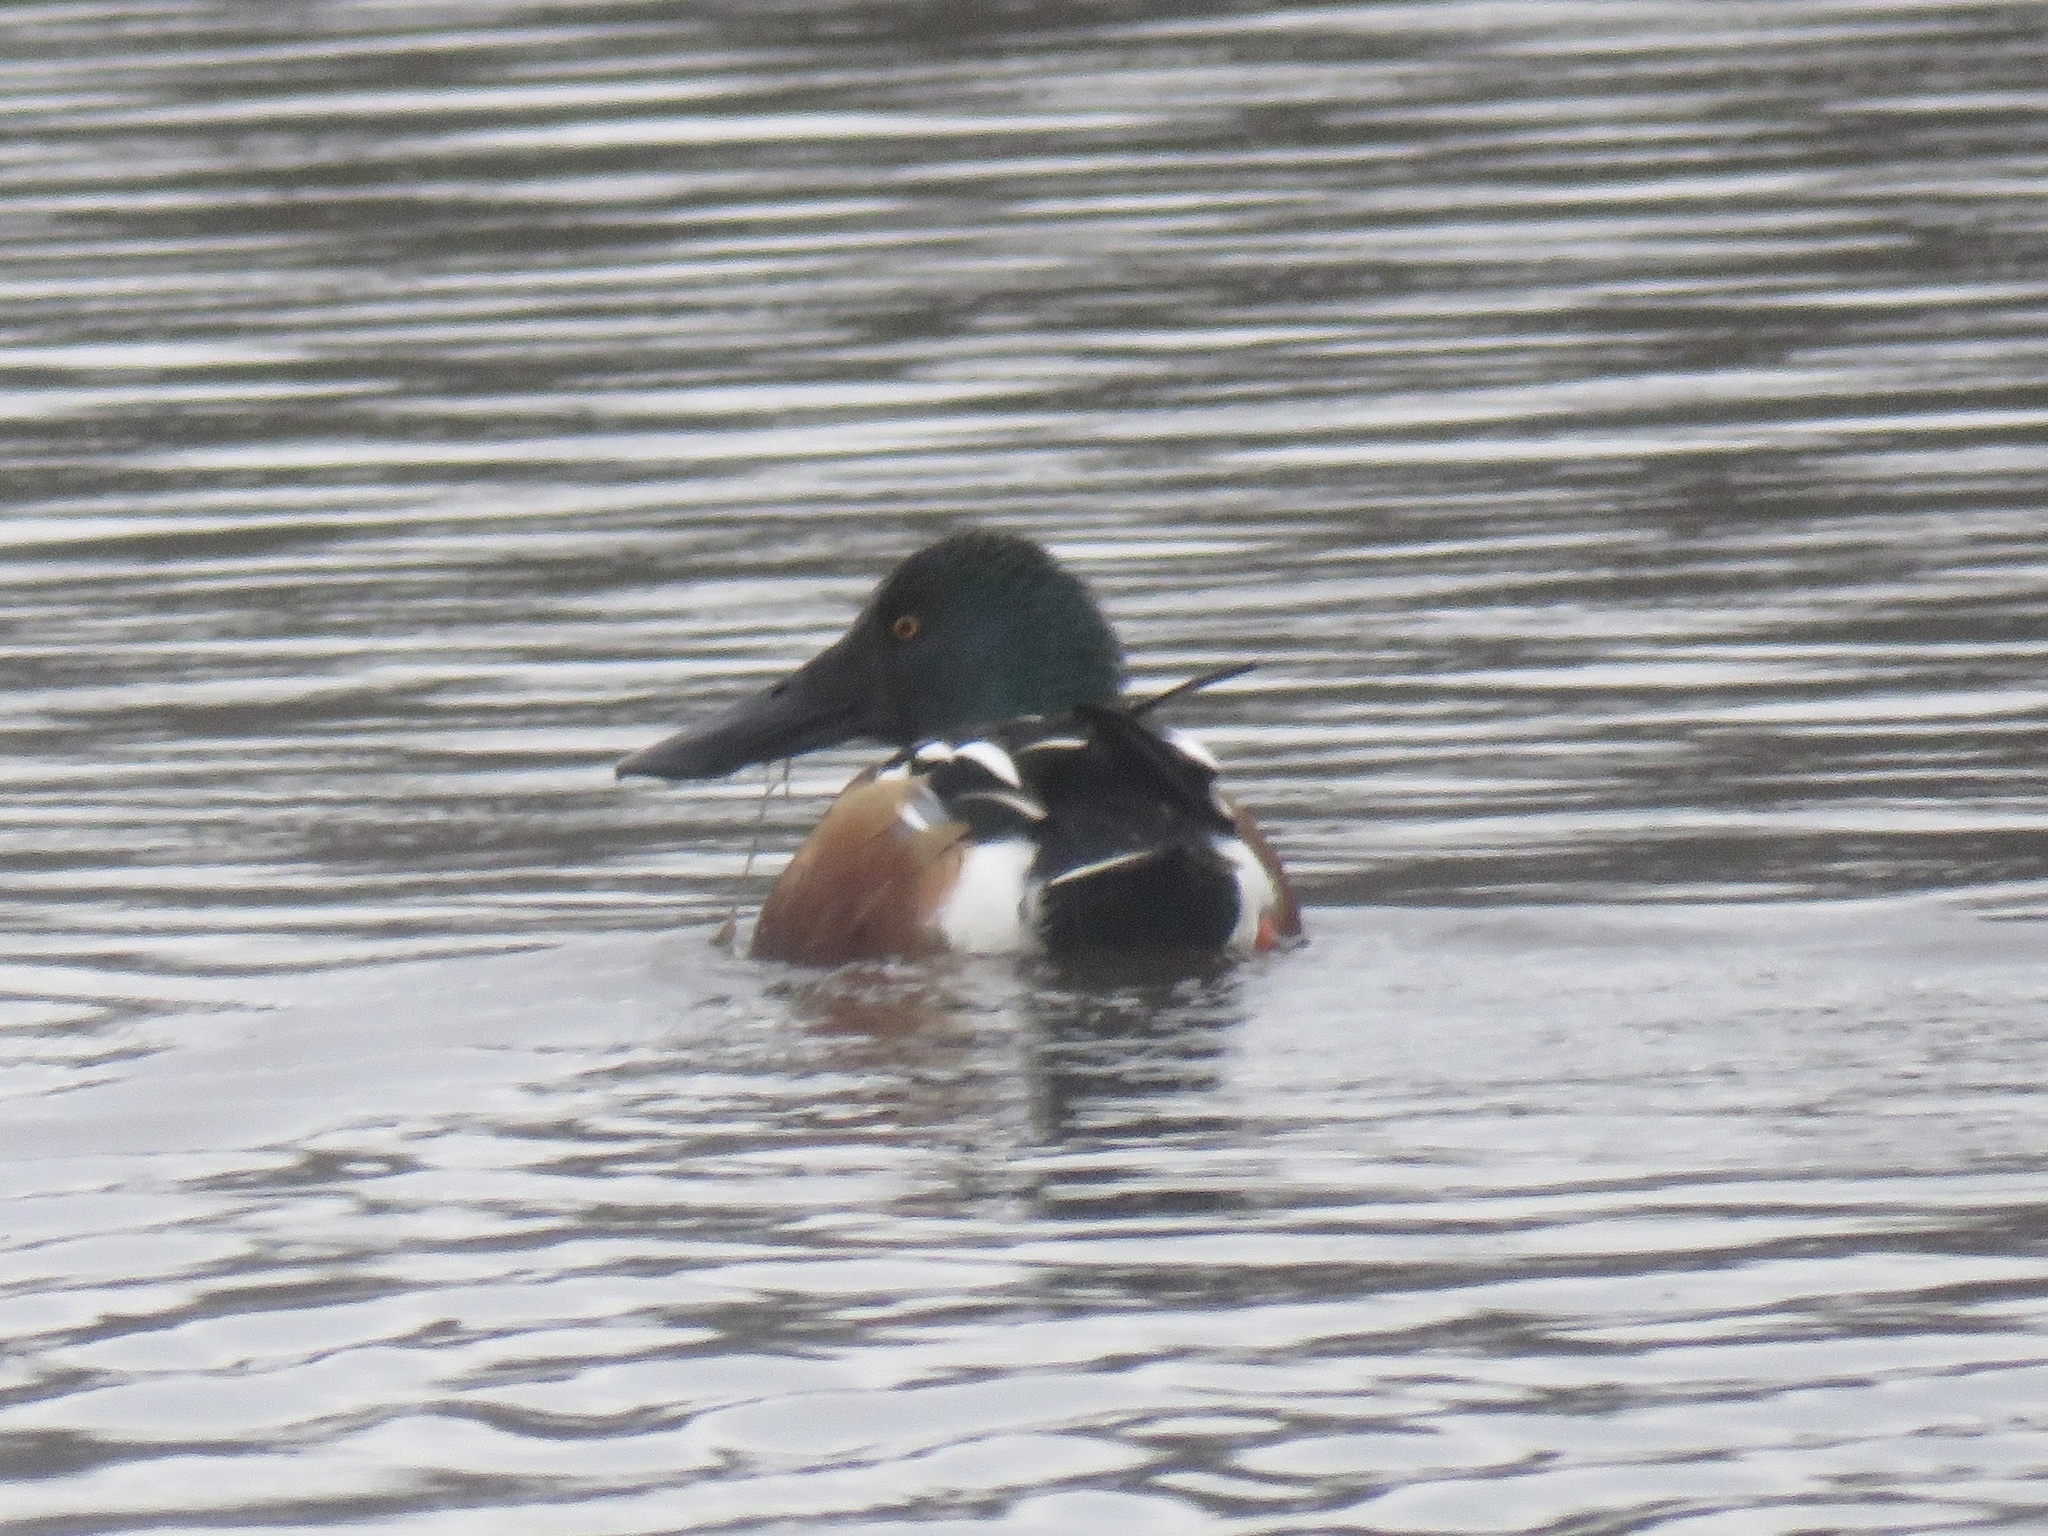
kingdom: Animalia
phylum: Chordata
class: Aves
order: Anseriformes
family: Anatidae
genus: Spatula
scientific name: Spatula clypeata
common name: Northern shoveler
